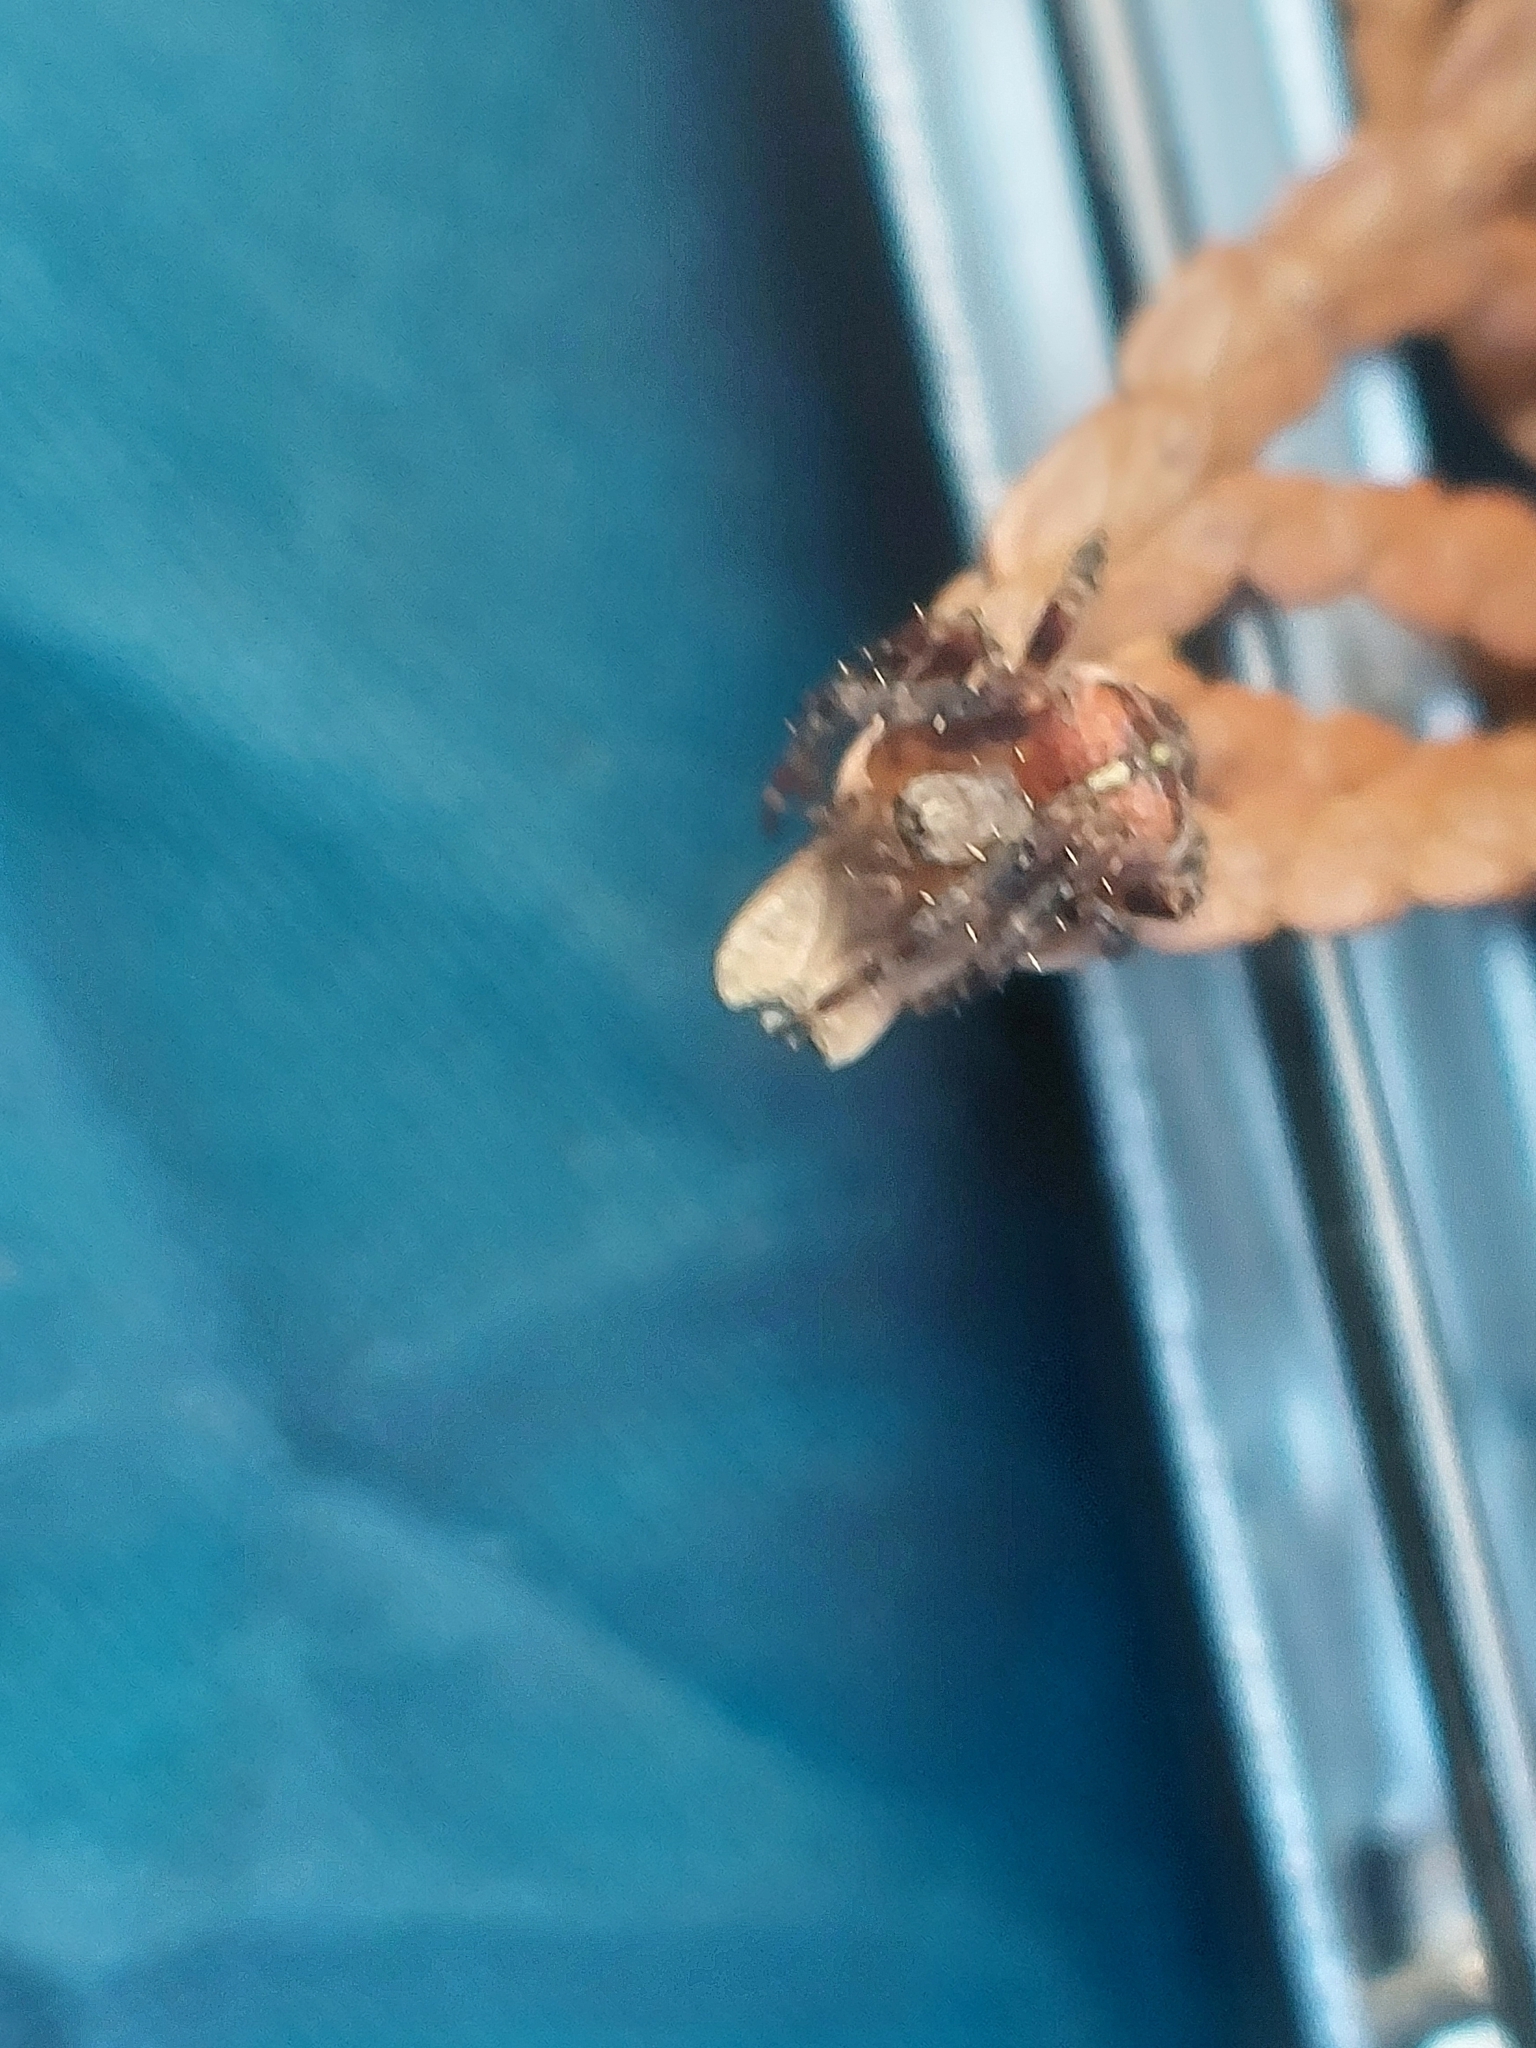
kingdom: Animalia
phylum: Arthropoda
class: Arachnida
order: Araneae
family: Araneidae
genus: Araneus
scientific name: Araneus diadematus
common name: Cross orbweaver
